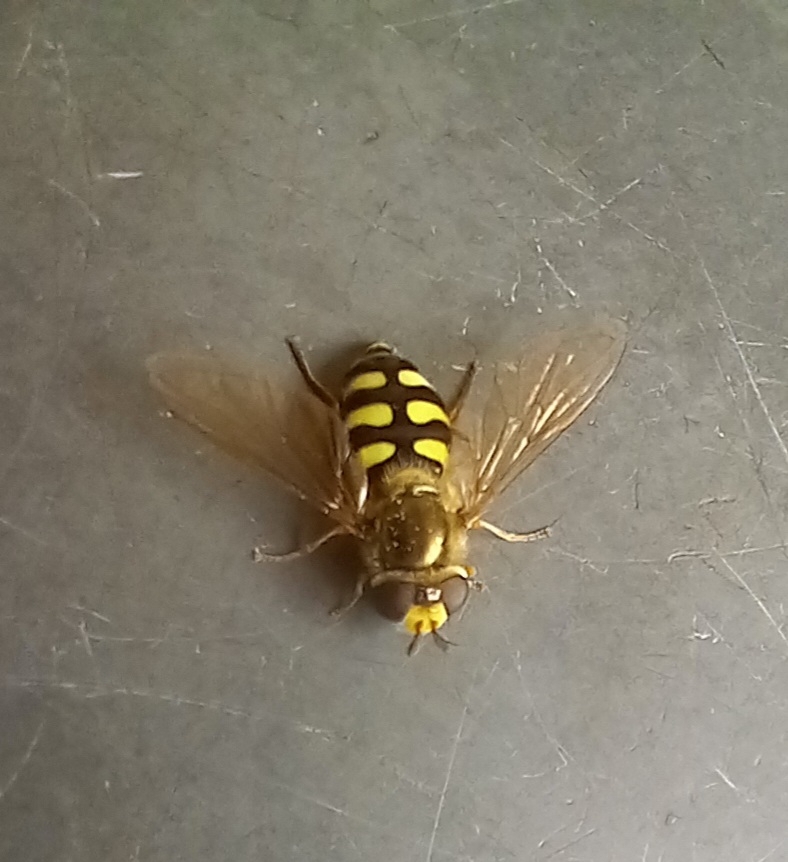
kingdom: Animalia
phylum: Arthropoda
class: Insecta
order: Diptera
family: Syrphidae
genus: Eupeodes
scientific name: Eupeodes corollae
